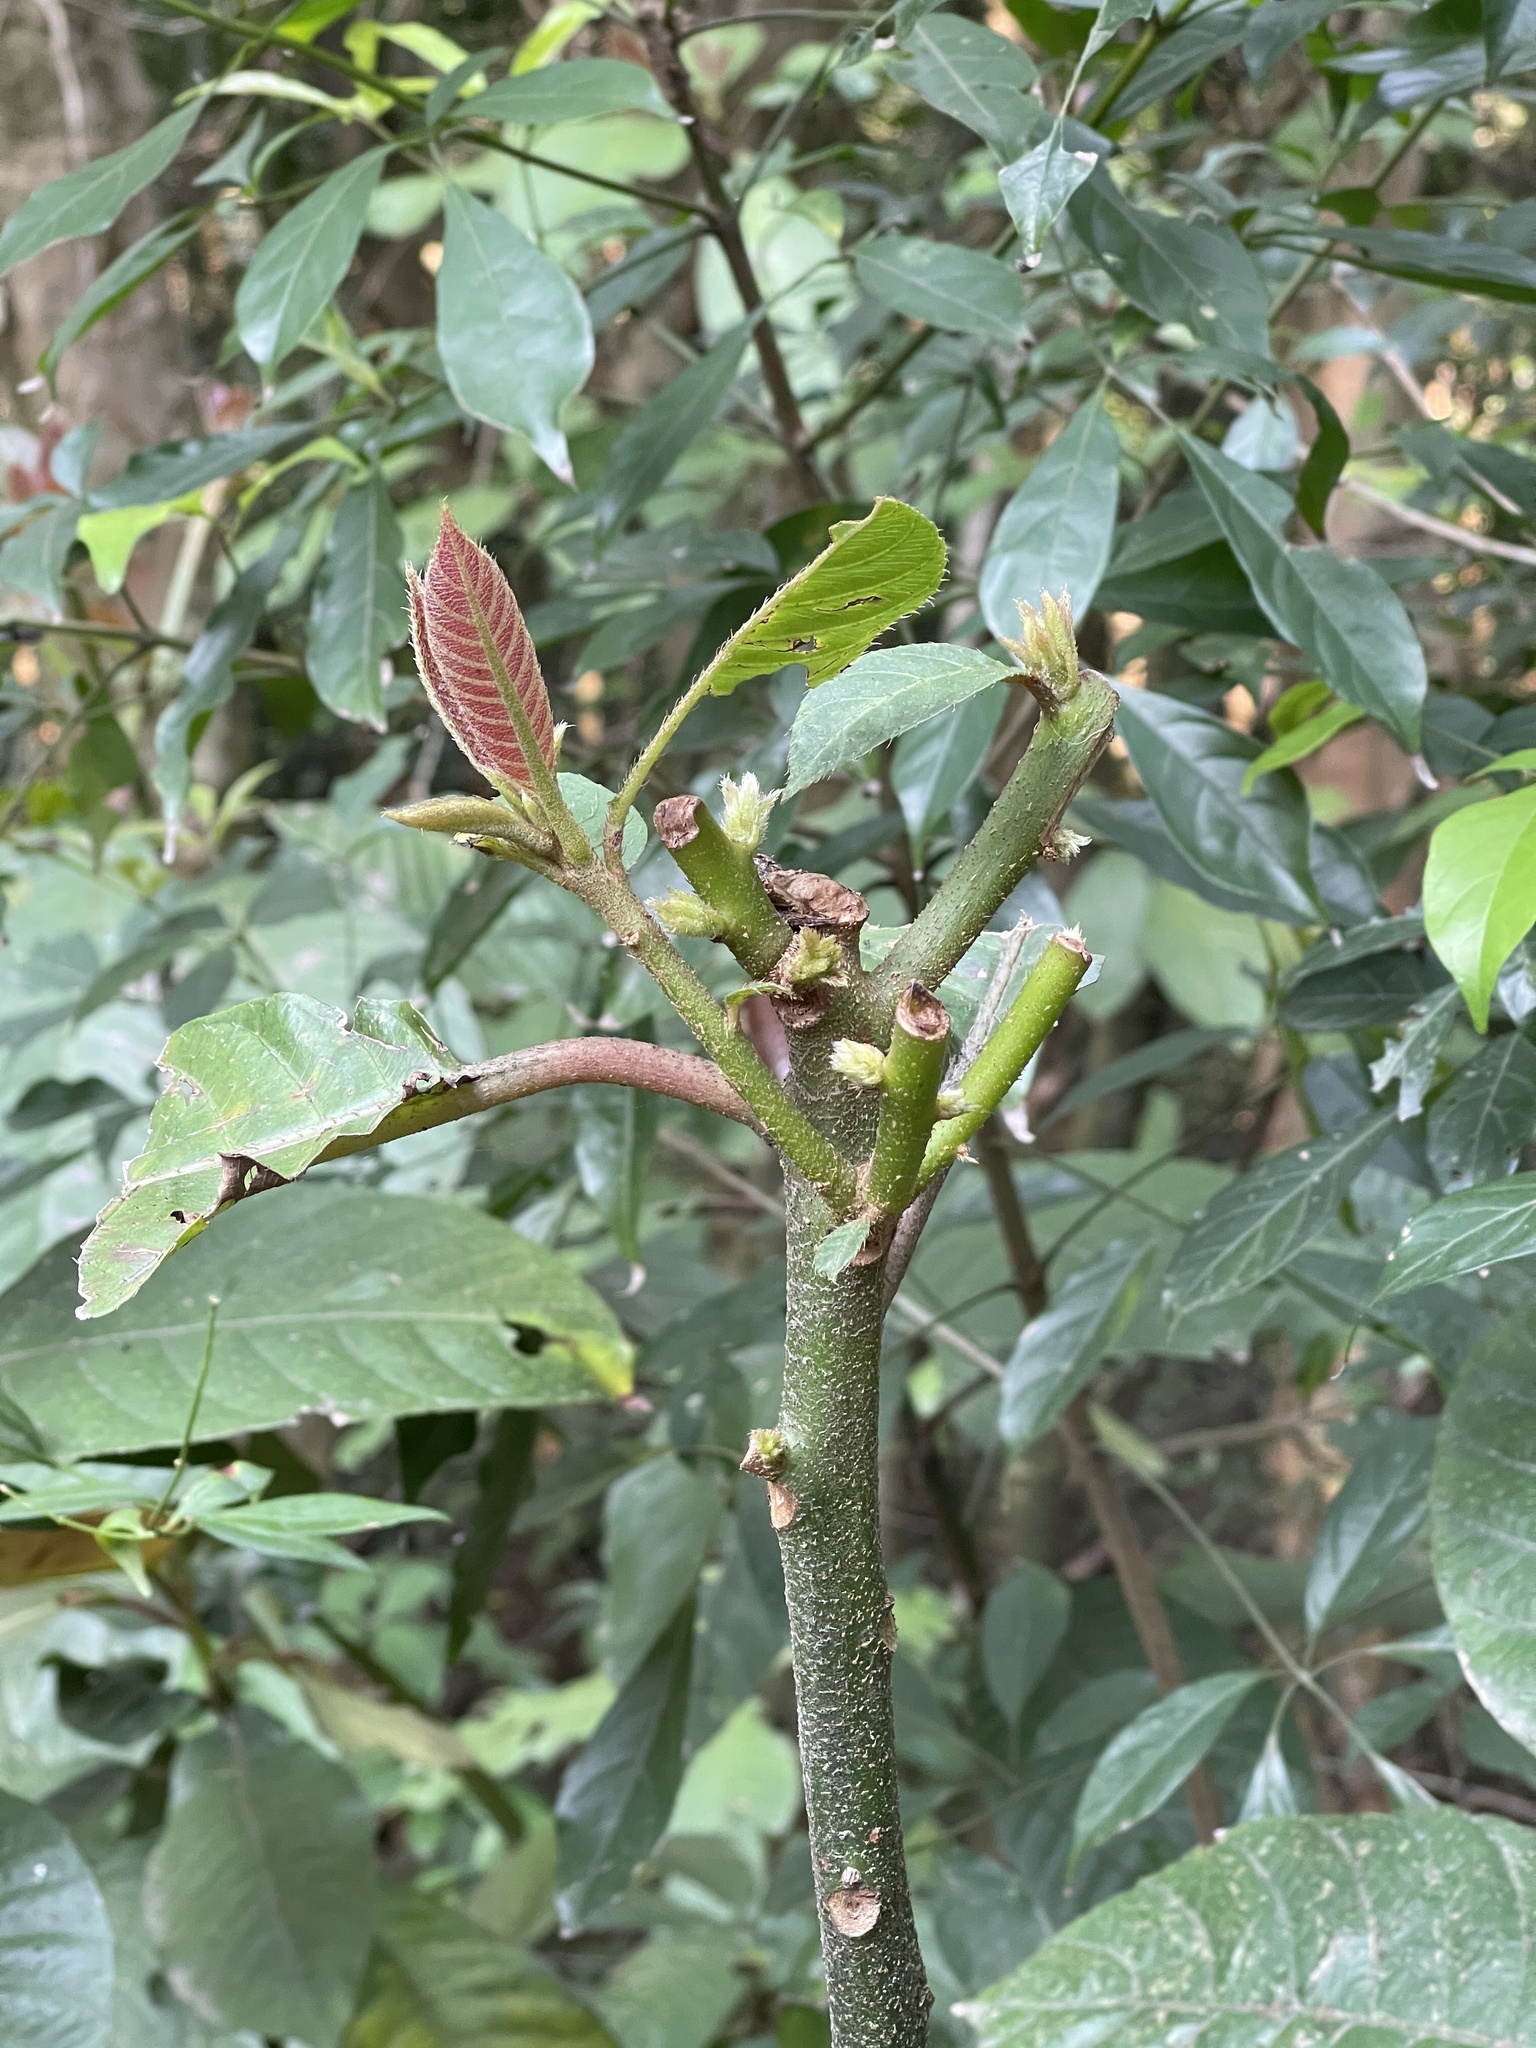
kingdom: Plantae
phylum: Tracheophyta
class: Magnoliopsida
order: Ericales
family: Actinidiaceae
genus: Saurauia
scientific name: Saurauia tristyla
